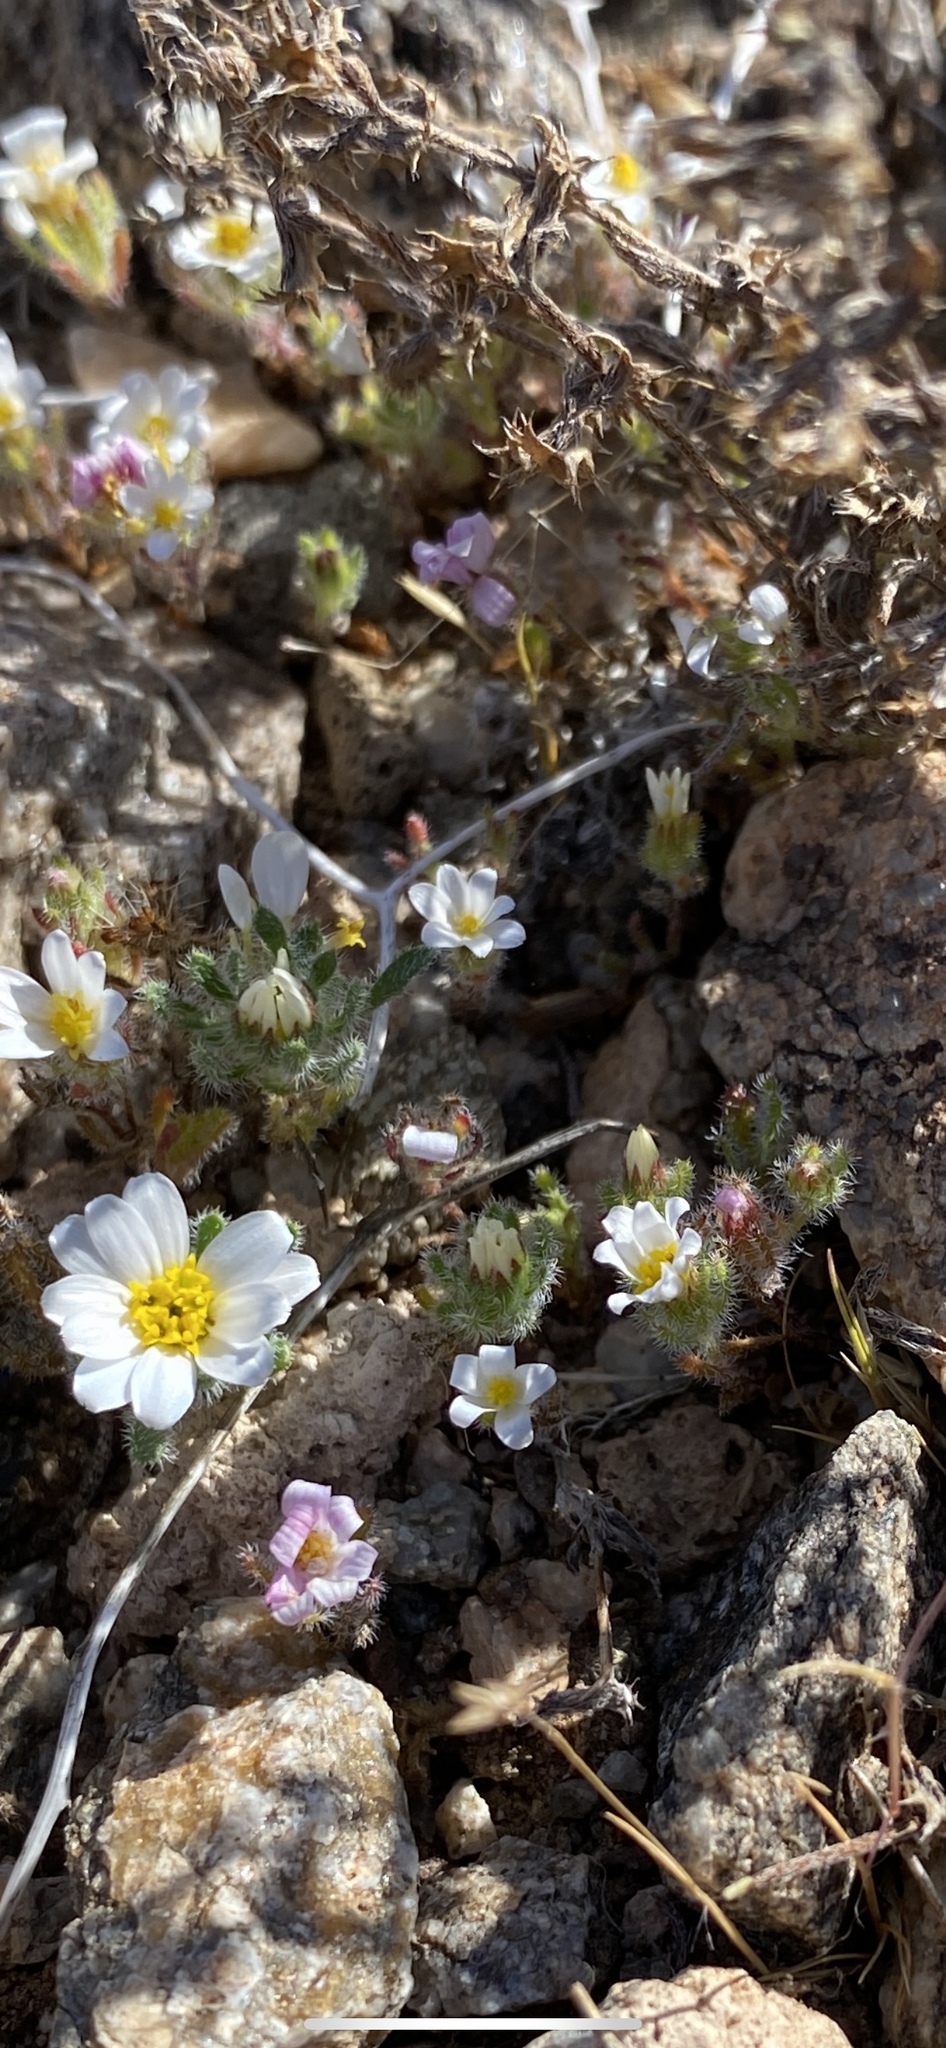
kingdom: Plantae
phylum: Tracheophyta
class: Magnoliopsida
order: Asterales
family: Asteraceae
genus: Monoptilon
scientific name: Monoptilon bellioides
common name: Bristly desertstar
